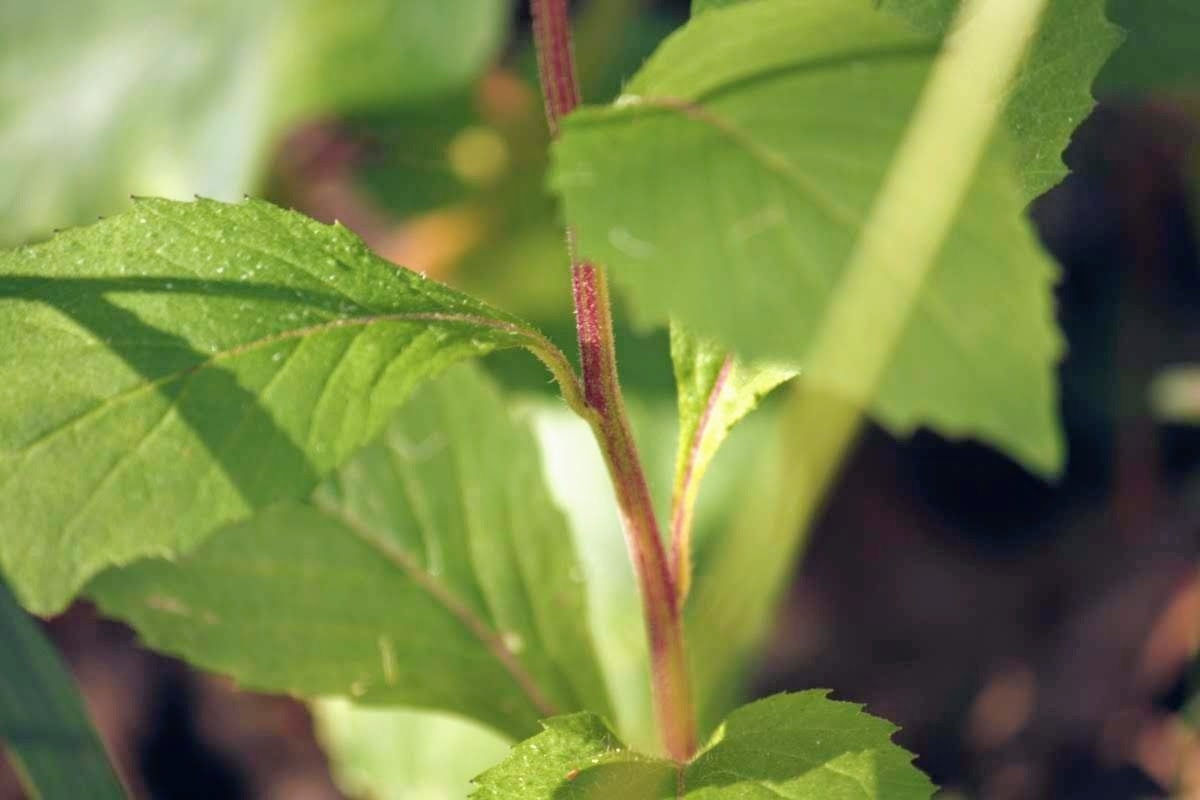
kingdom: Plantae
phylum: Tracheophyta
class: Magnoliopsida
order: Asterales
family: Asteraceae
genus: Crassocephalum
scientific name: Crassocephalum crepidioides
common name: Redflower ragleaf
